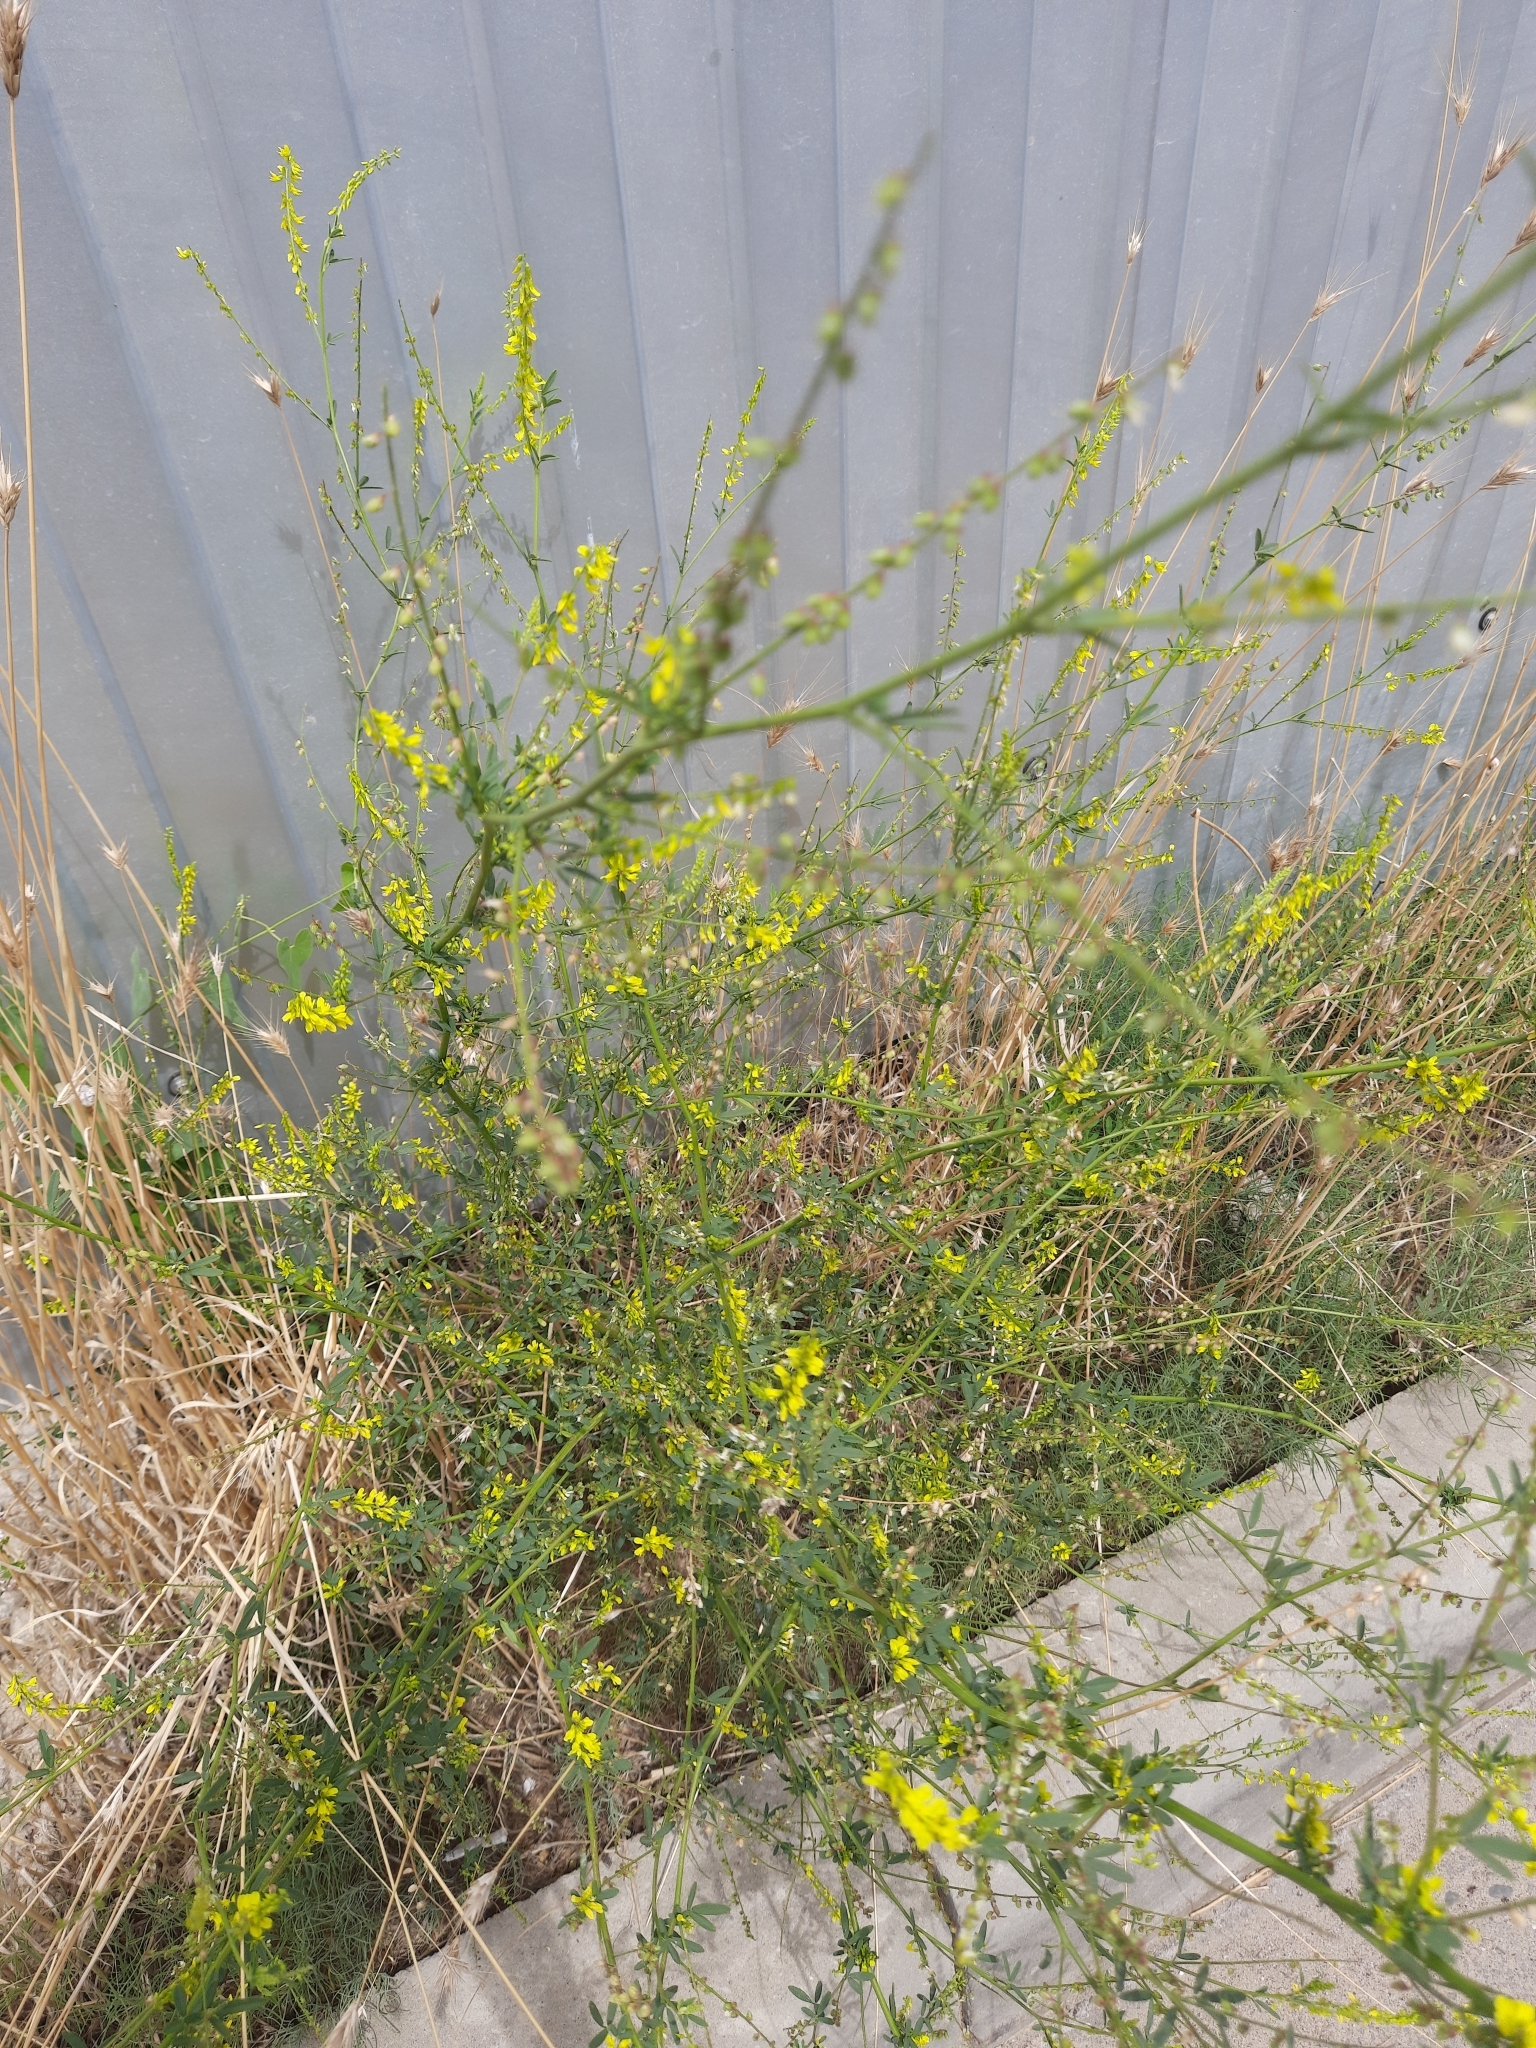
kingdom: Plantae
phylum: Tracheophyta
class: Magnoliopsida
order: Fabales
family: Fabaceae
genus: Melilotus
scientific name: Melilotus officinalis
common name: Sweetclover
